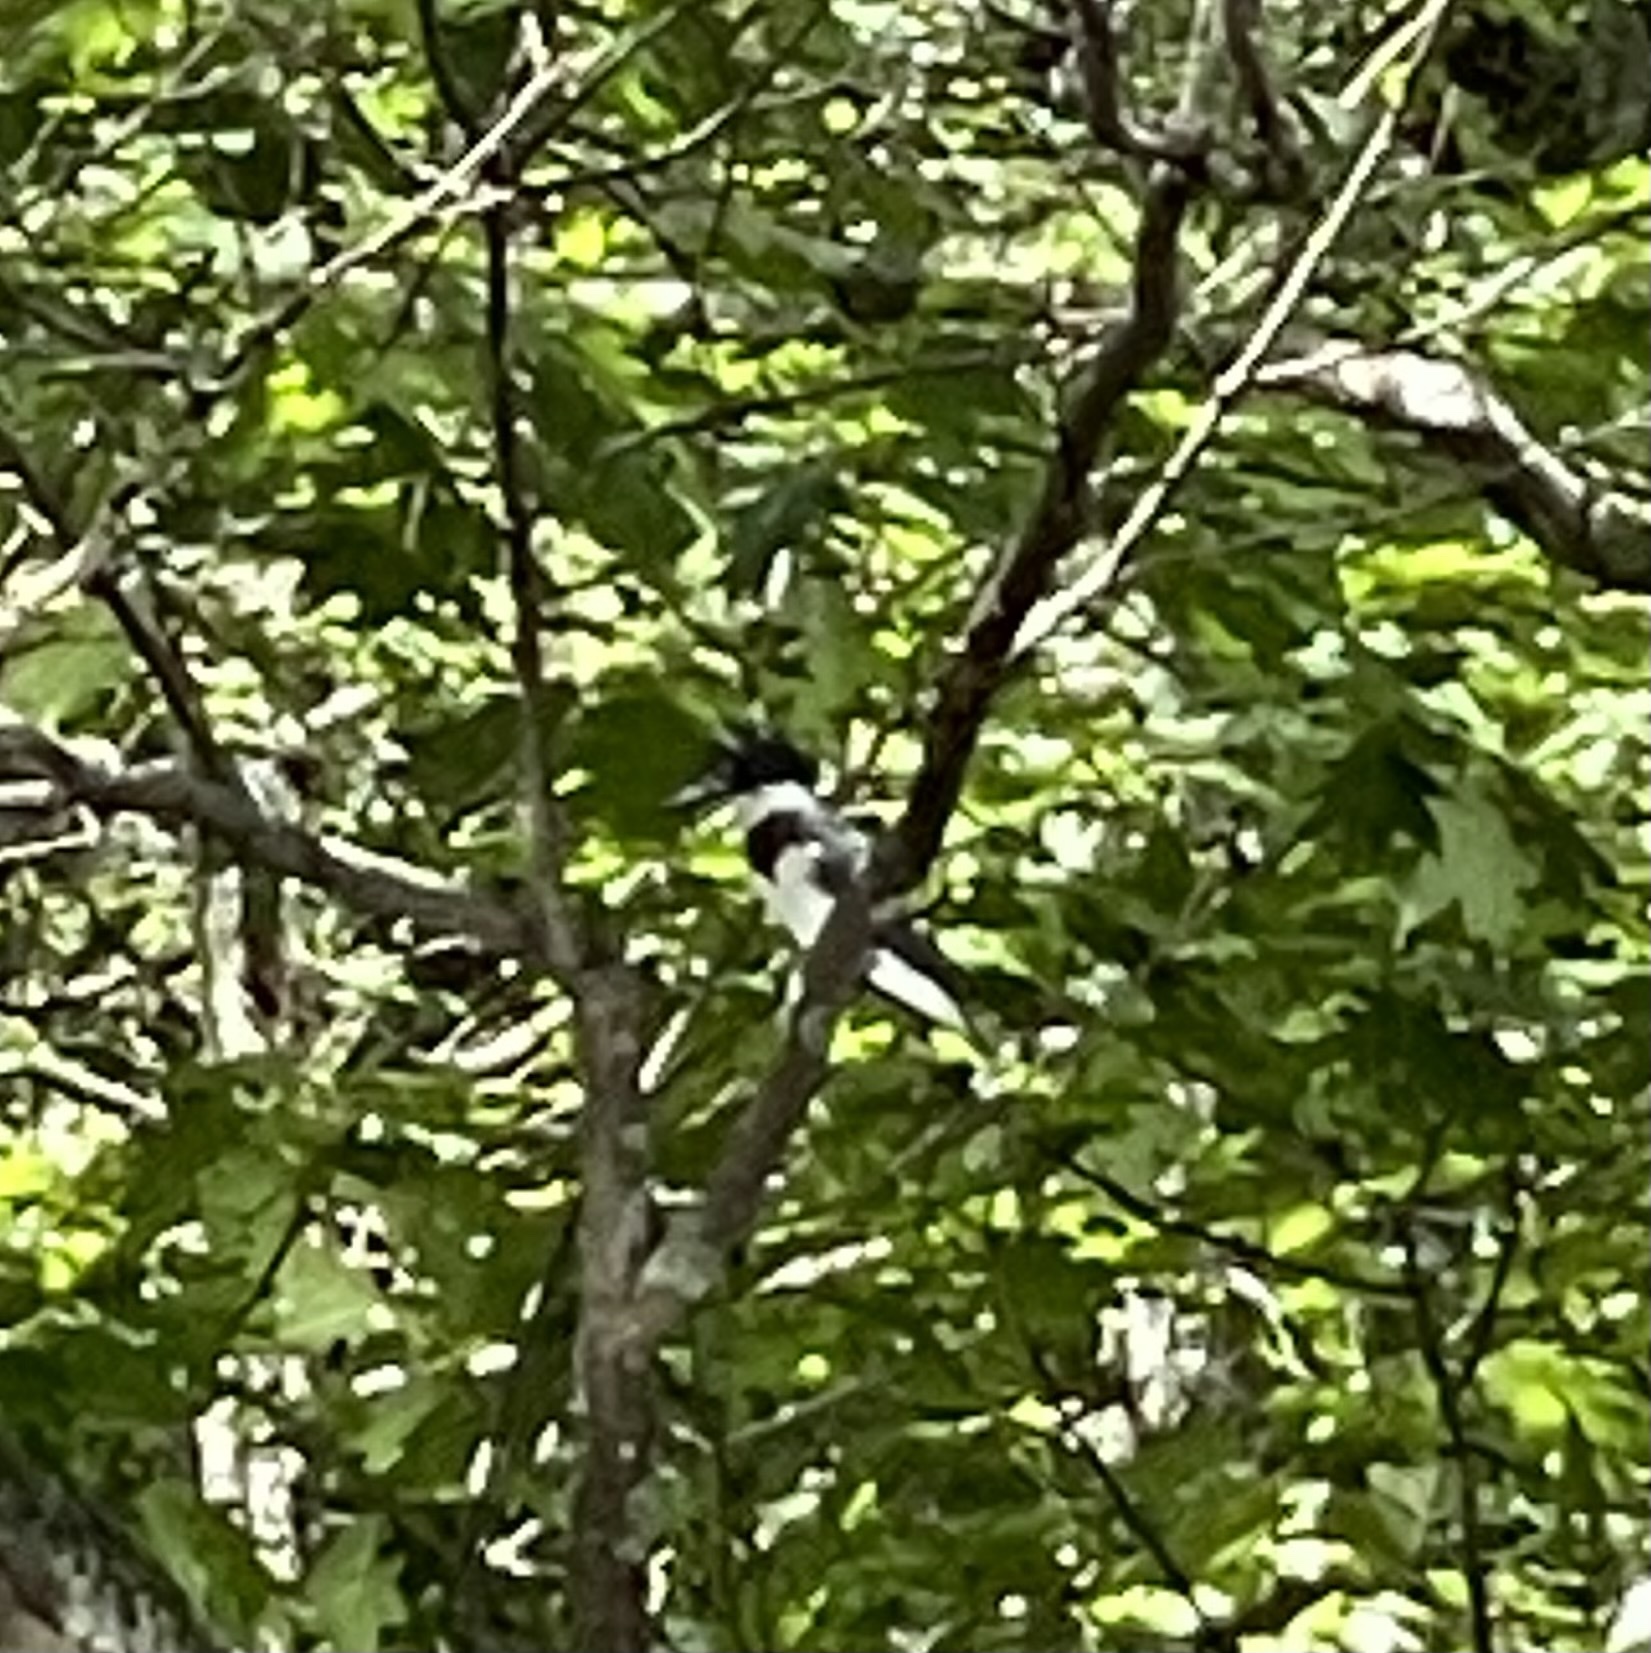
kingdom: Animalia
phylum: Chordata
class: Aves
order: Coraciiformes
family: Alcedinidae
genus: Megaceryle
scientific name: Megaceryle alcyon
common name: Belted kingfisher
